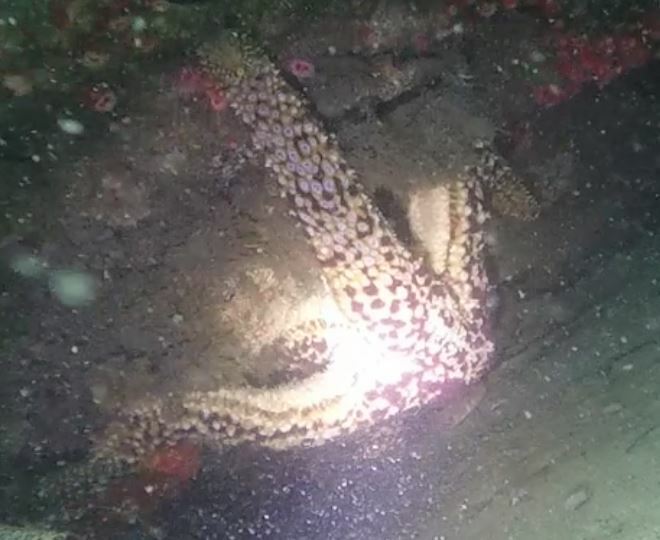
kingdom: Animalia
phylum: Echinodermata
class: Asteroidea
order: Forcipulatida
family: Asteriidae
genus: Pisaster
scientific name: Pisaster giganteus
